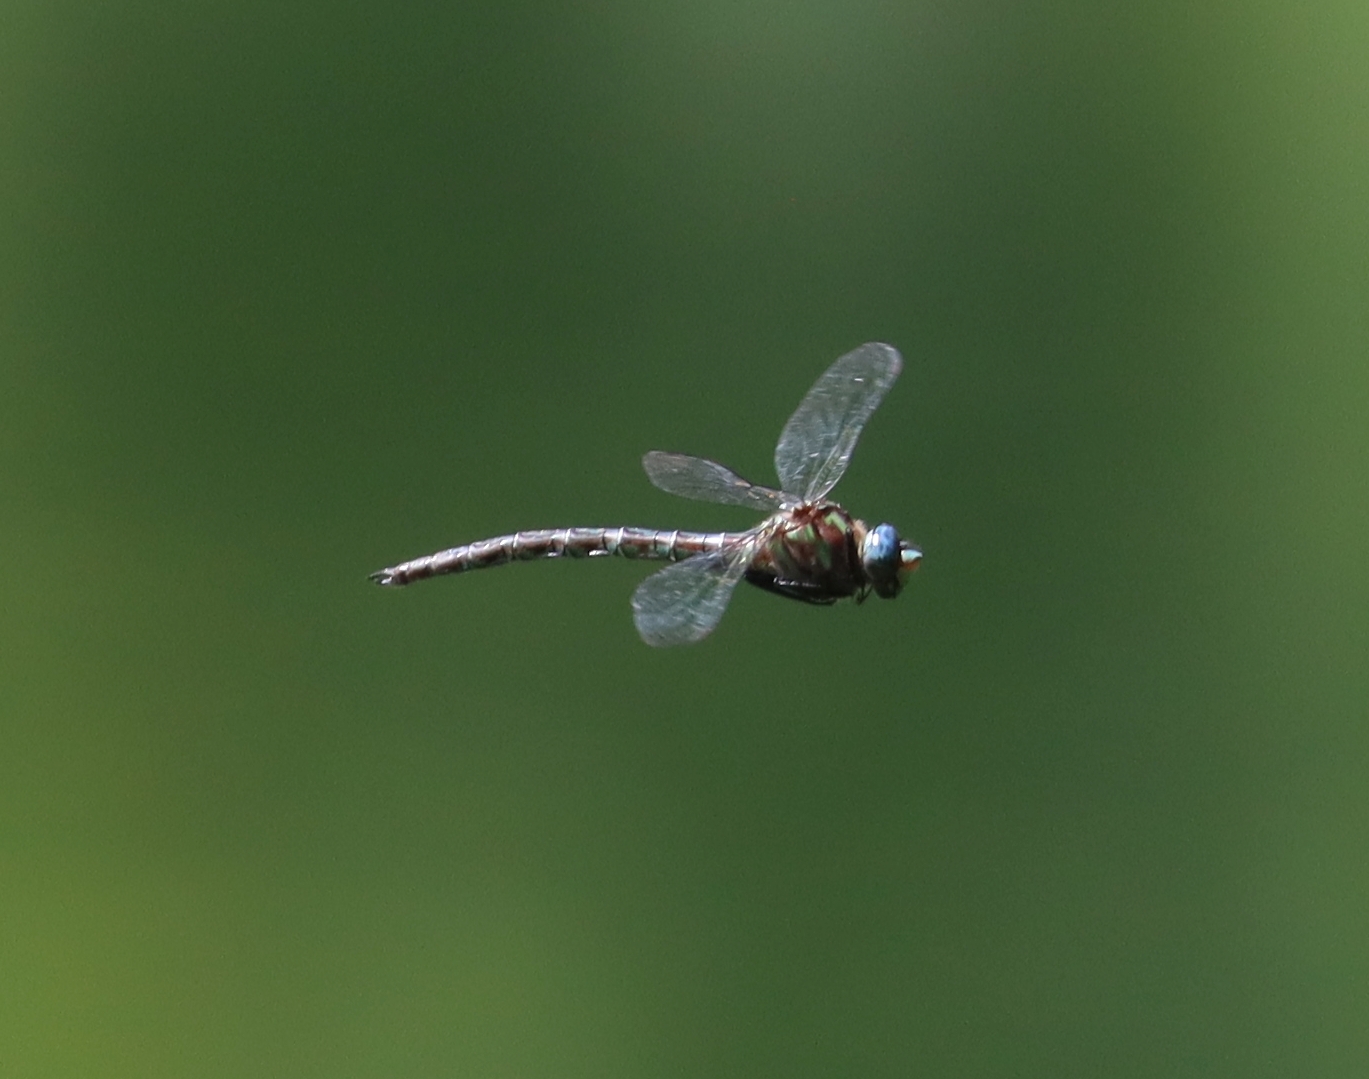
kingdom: Animalia
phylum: Arthropoda
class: Insecta
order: Odonata
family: Aeshnidae
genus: Nasiaeschna
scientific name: Nasiaeschna pentacantha
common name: Cyrano darner
